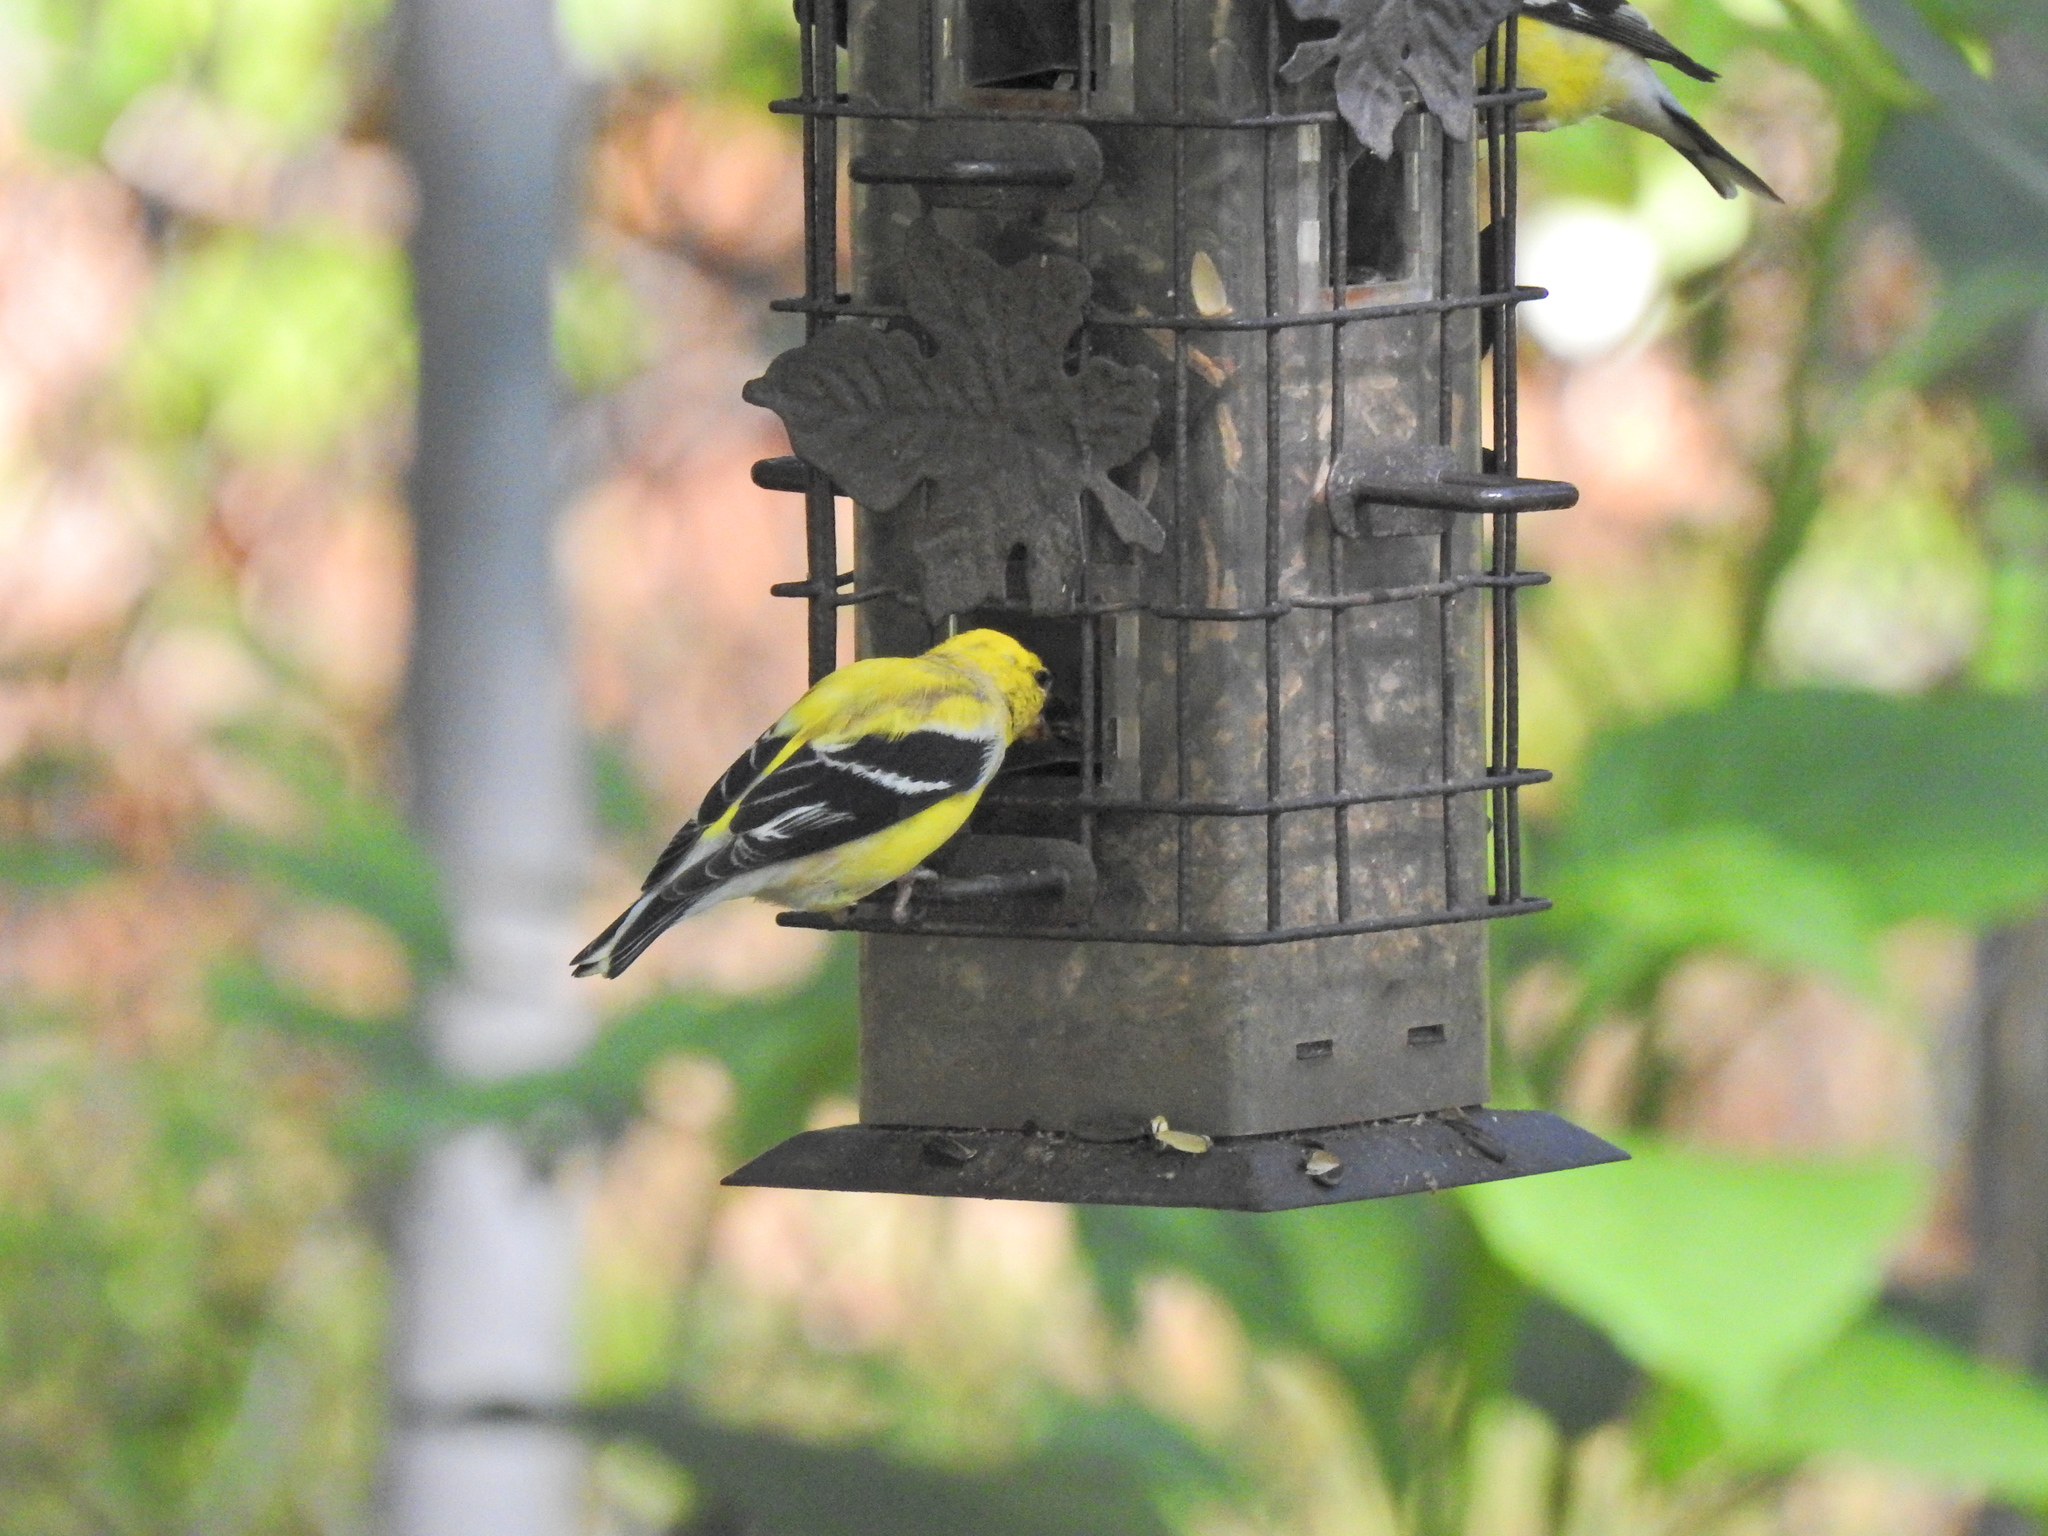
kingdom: Animalia
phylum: Chordata
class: Aves
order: Passeriformes
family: Fringillidae
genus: Spinus
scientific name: Spinus tristis
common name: American goldfinch
